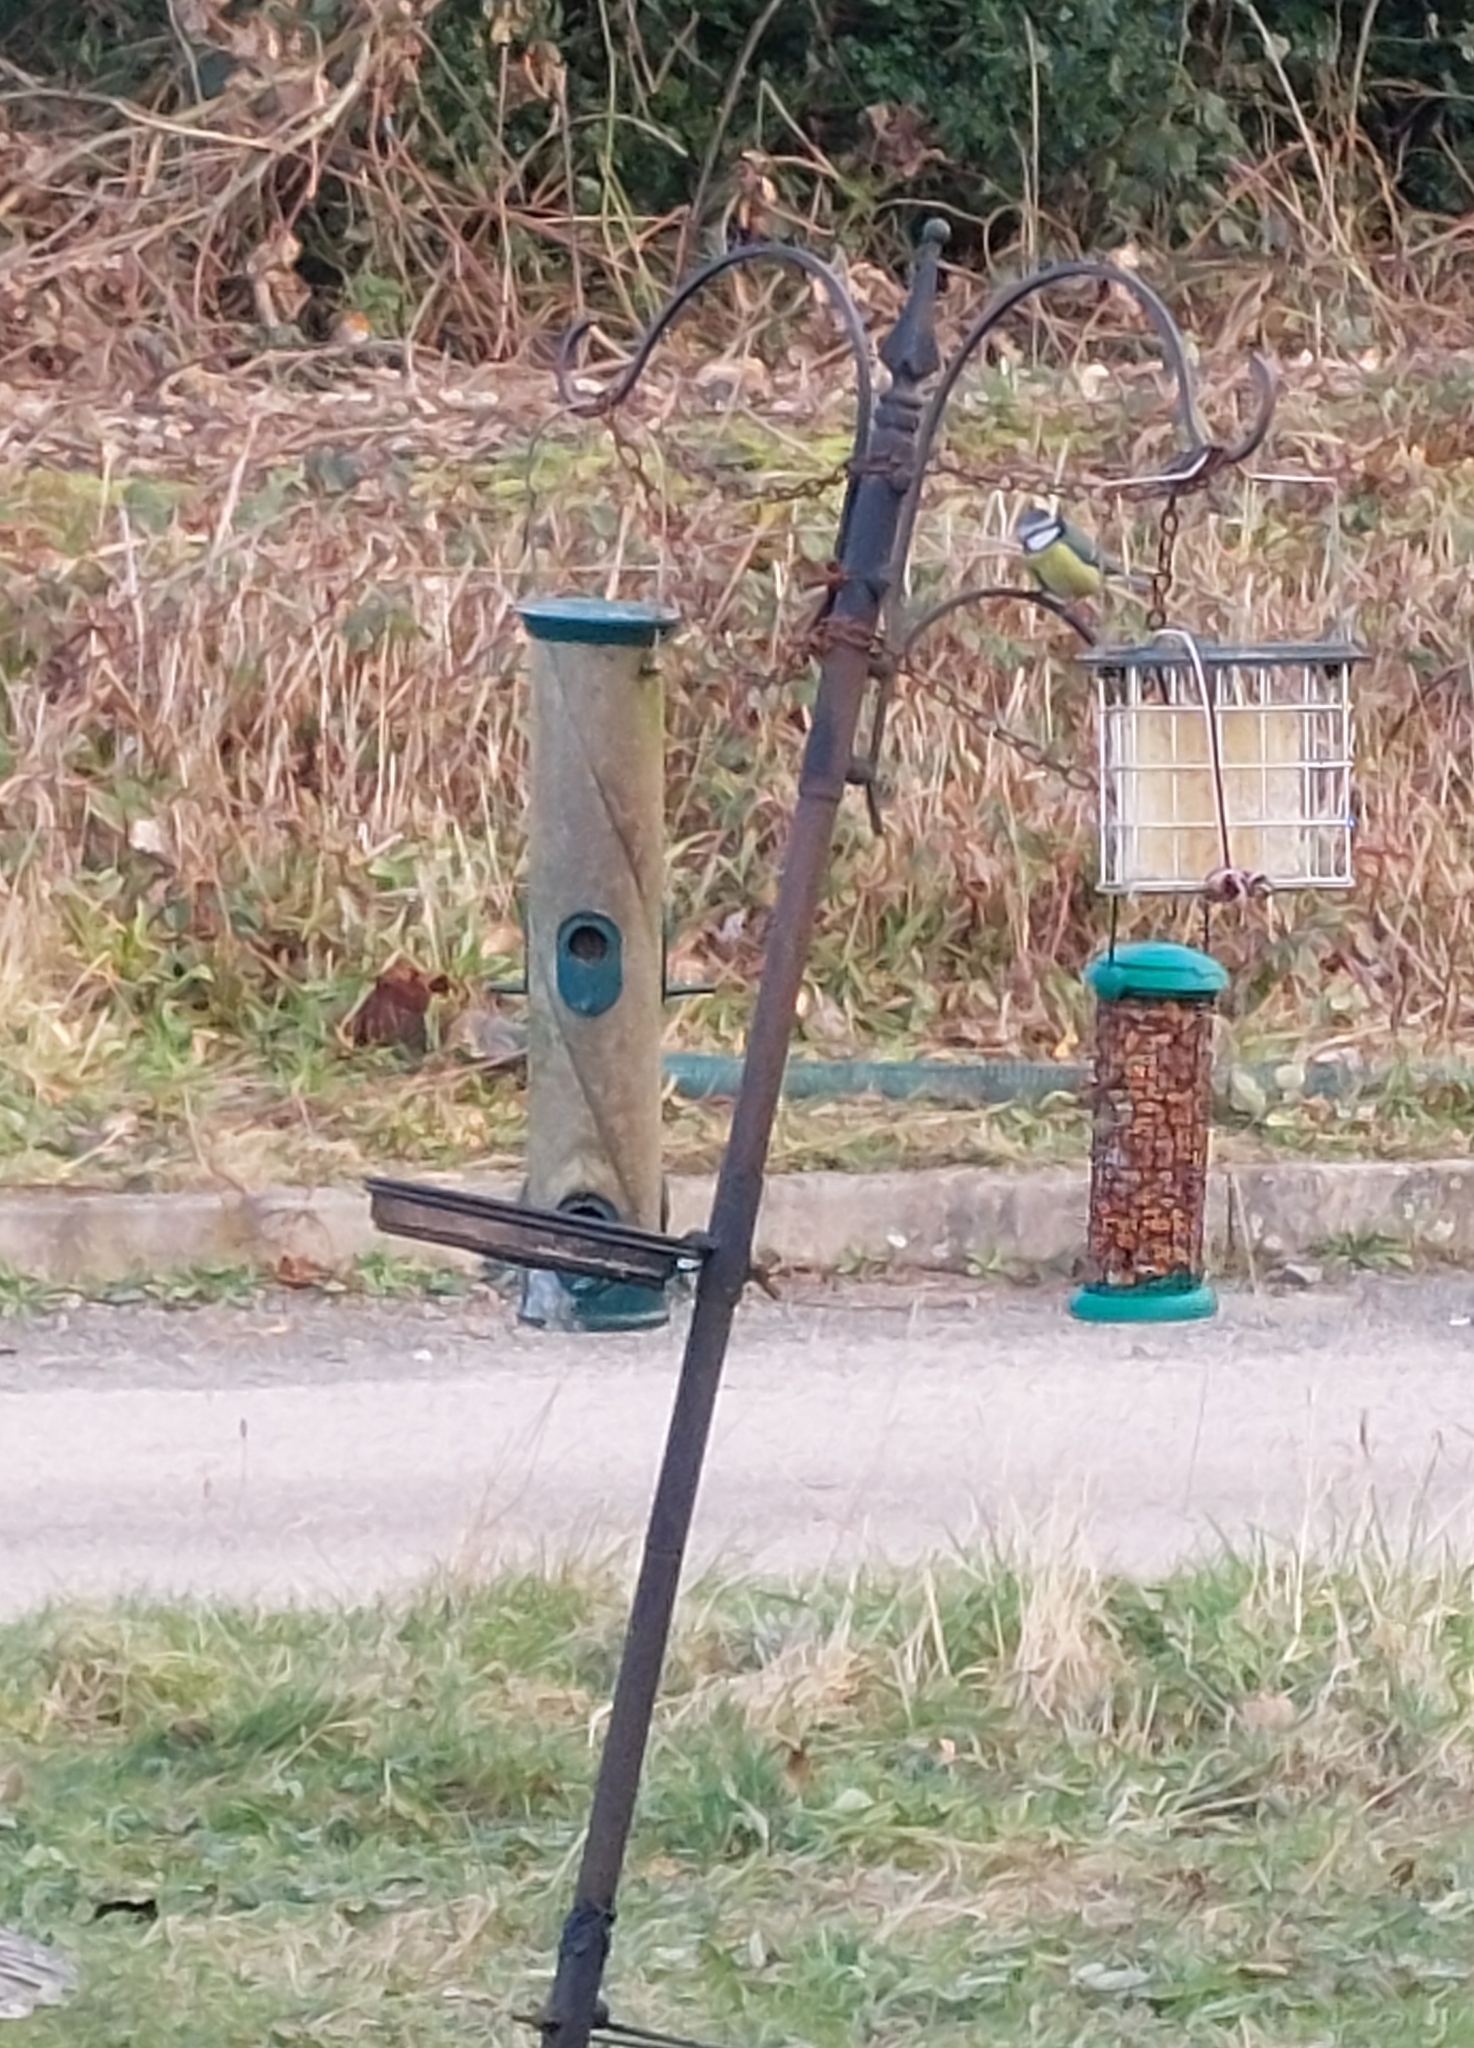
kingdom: Animalia
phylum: Chordata
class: Aves
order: Passeriformes
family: Paridae
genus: Cyanistes
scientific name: Cyanistes caeruleus
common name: Eurasian blue tit
